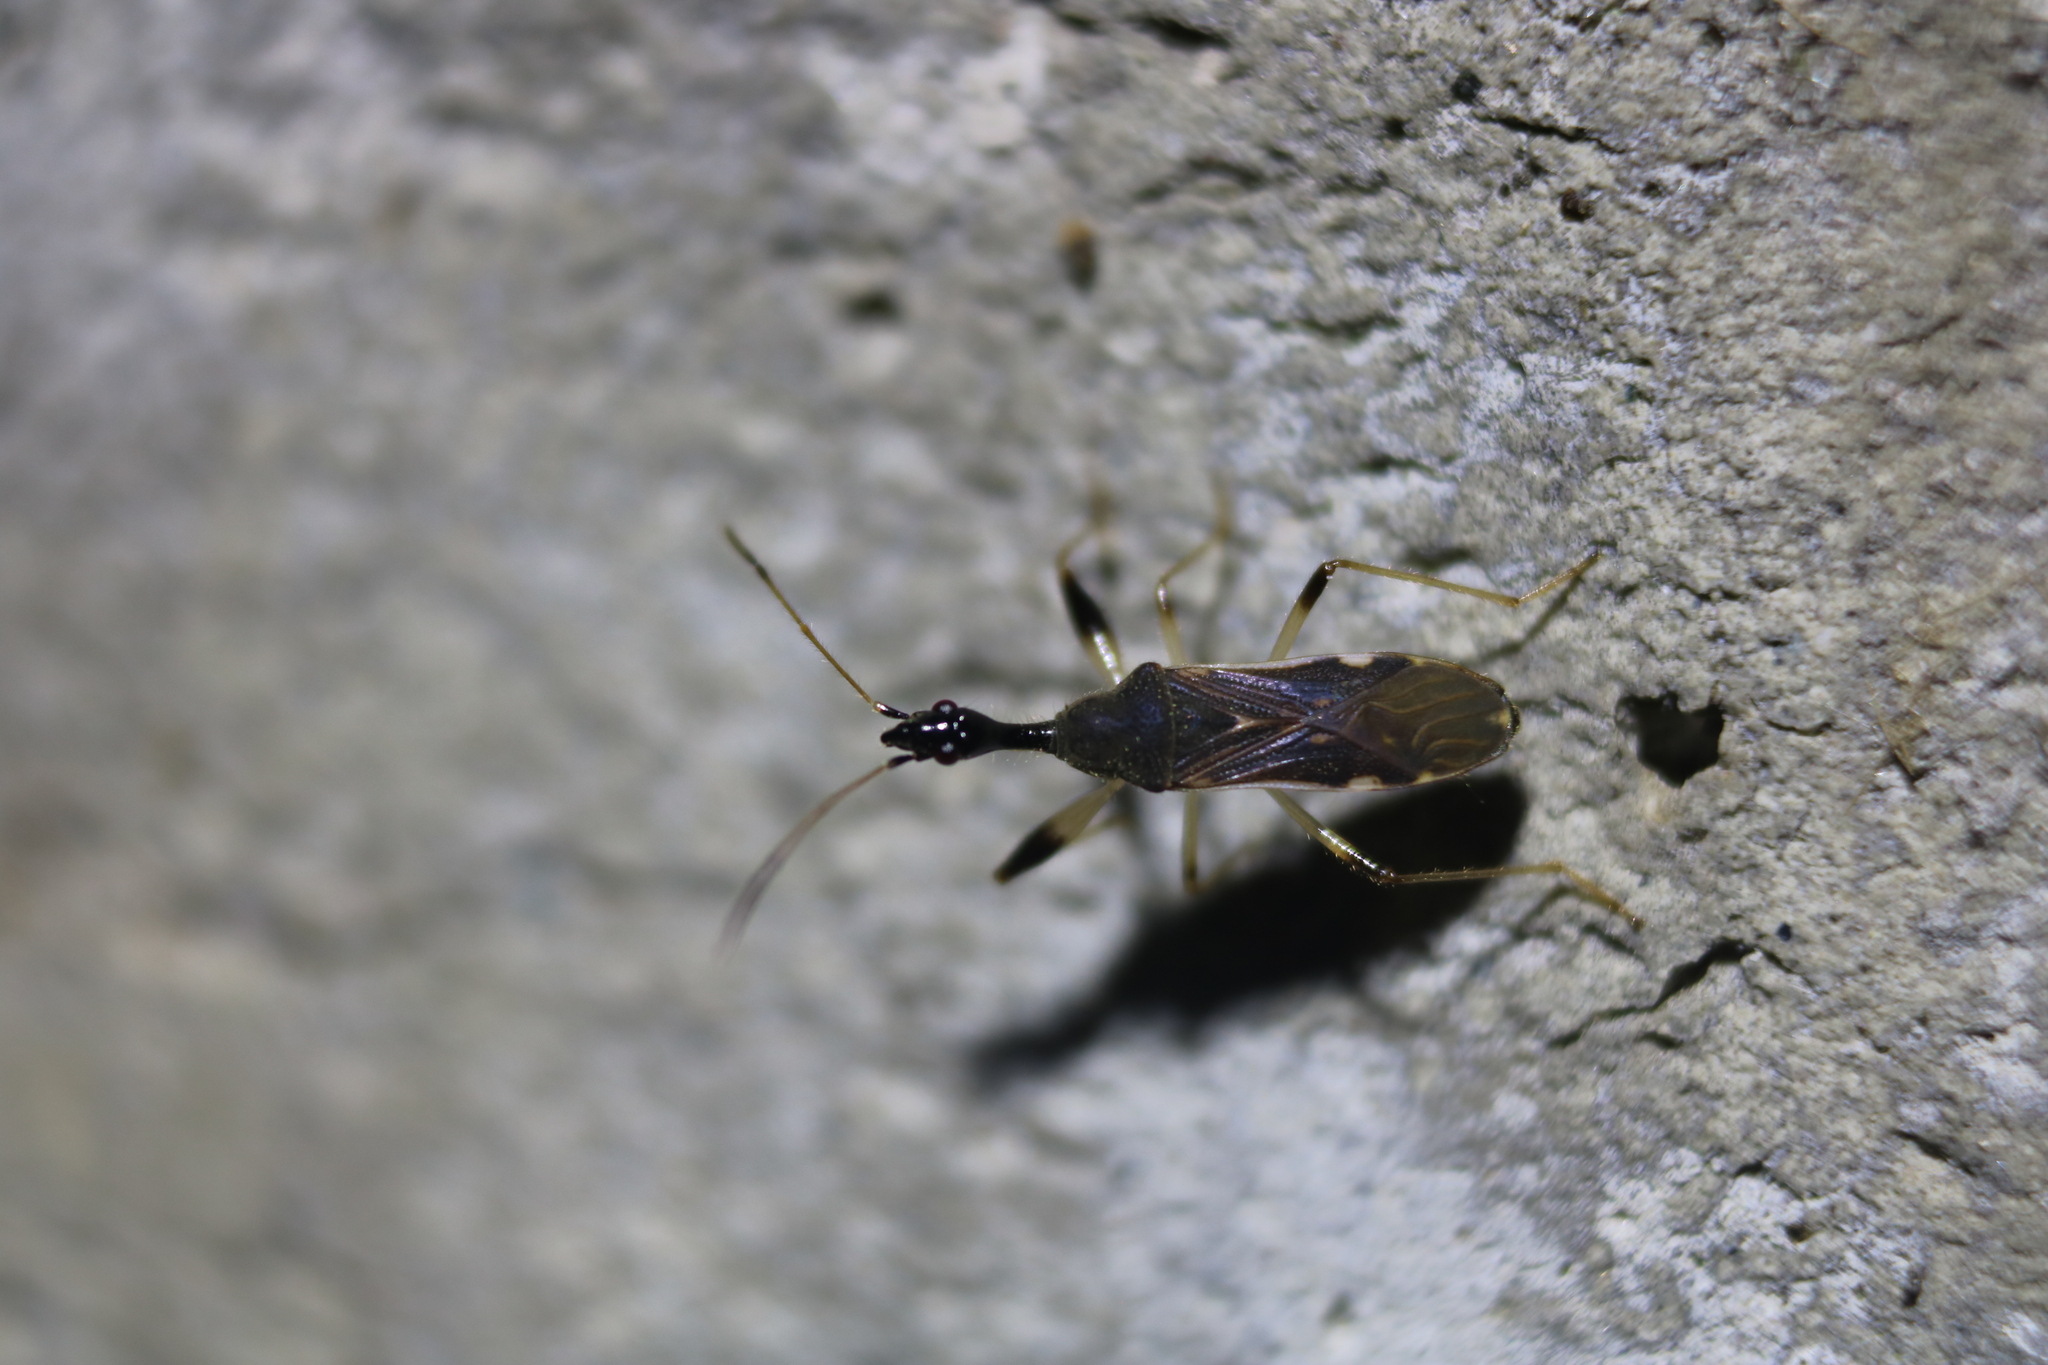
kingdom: Animalia
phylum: Arthropoda
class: Insecta
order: Hemiptera
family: Rhyparochromidae
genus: Myodocha
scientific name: Myodocha serripes
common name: Long-necked seed bug
